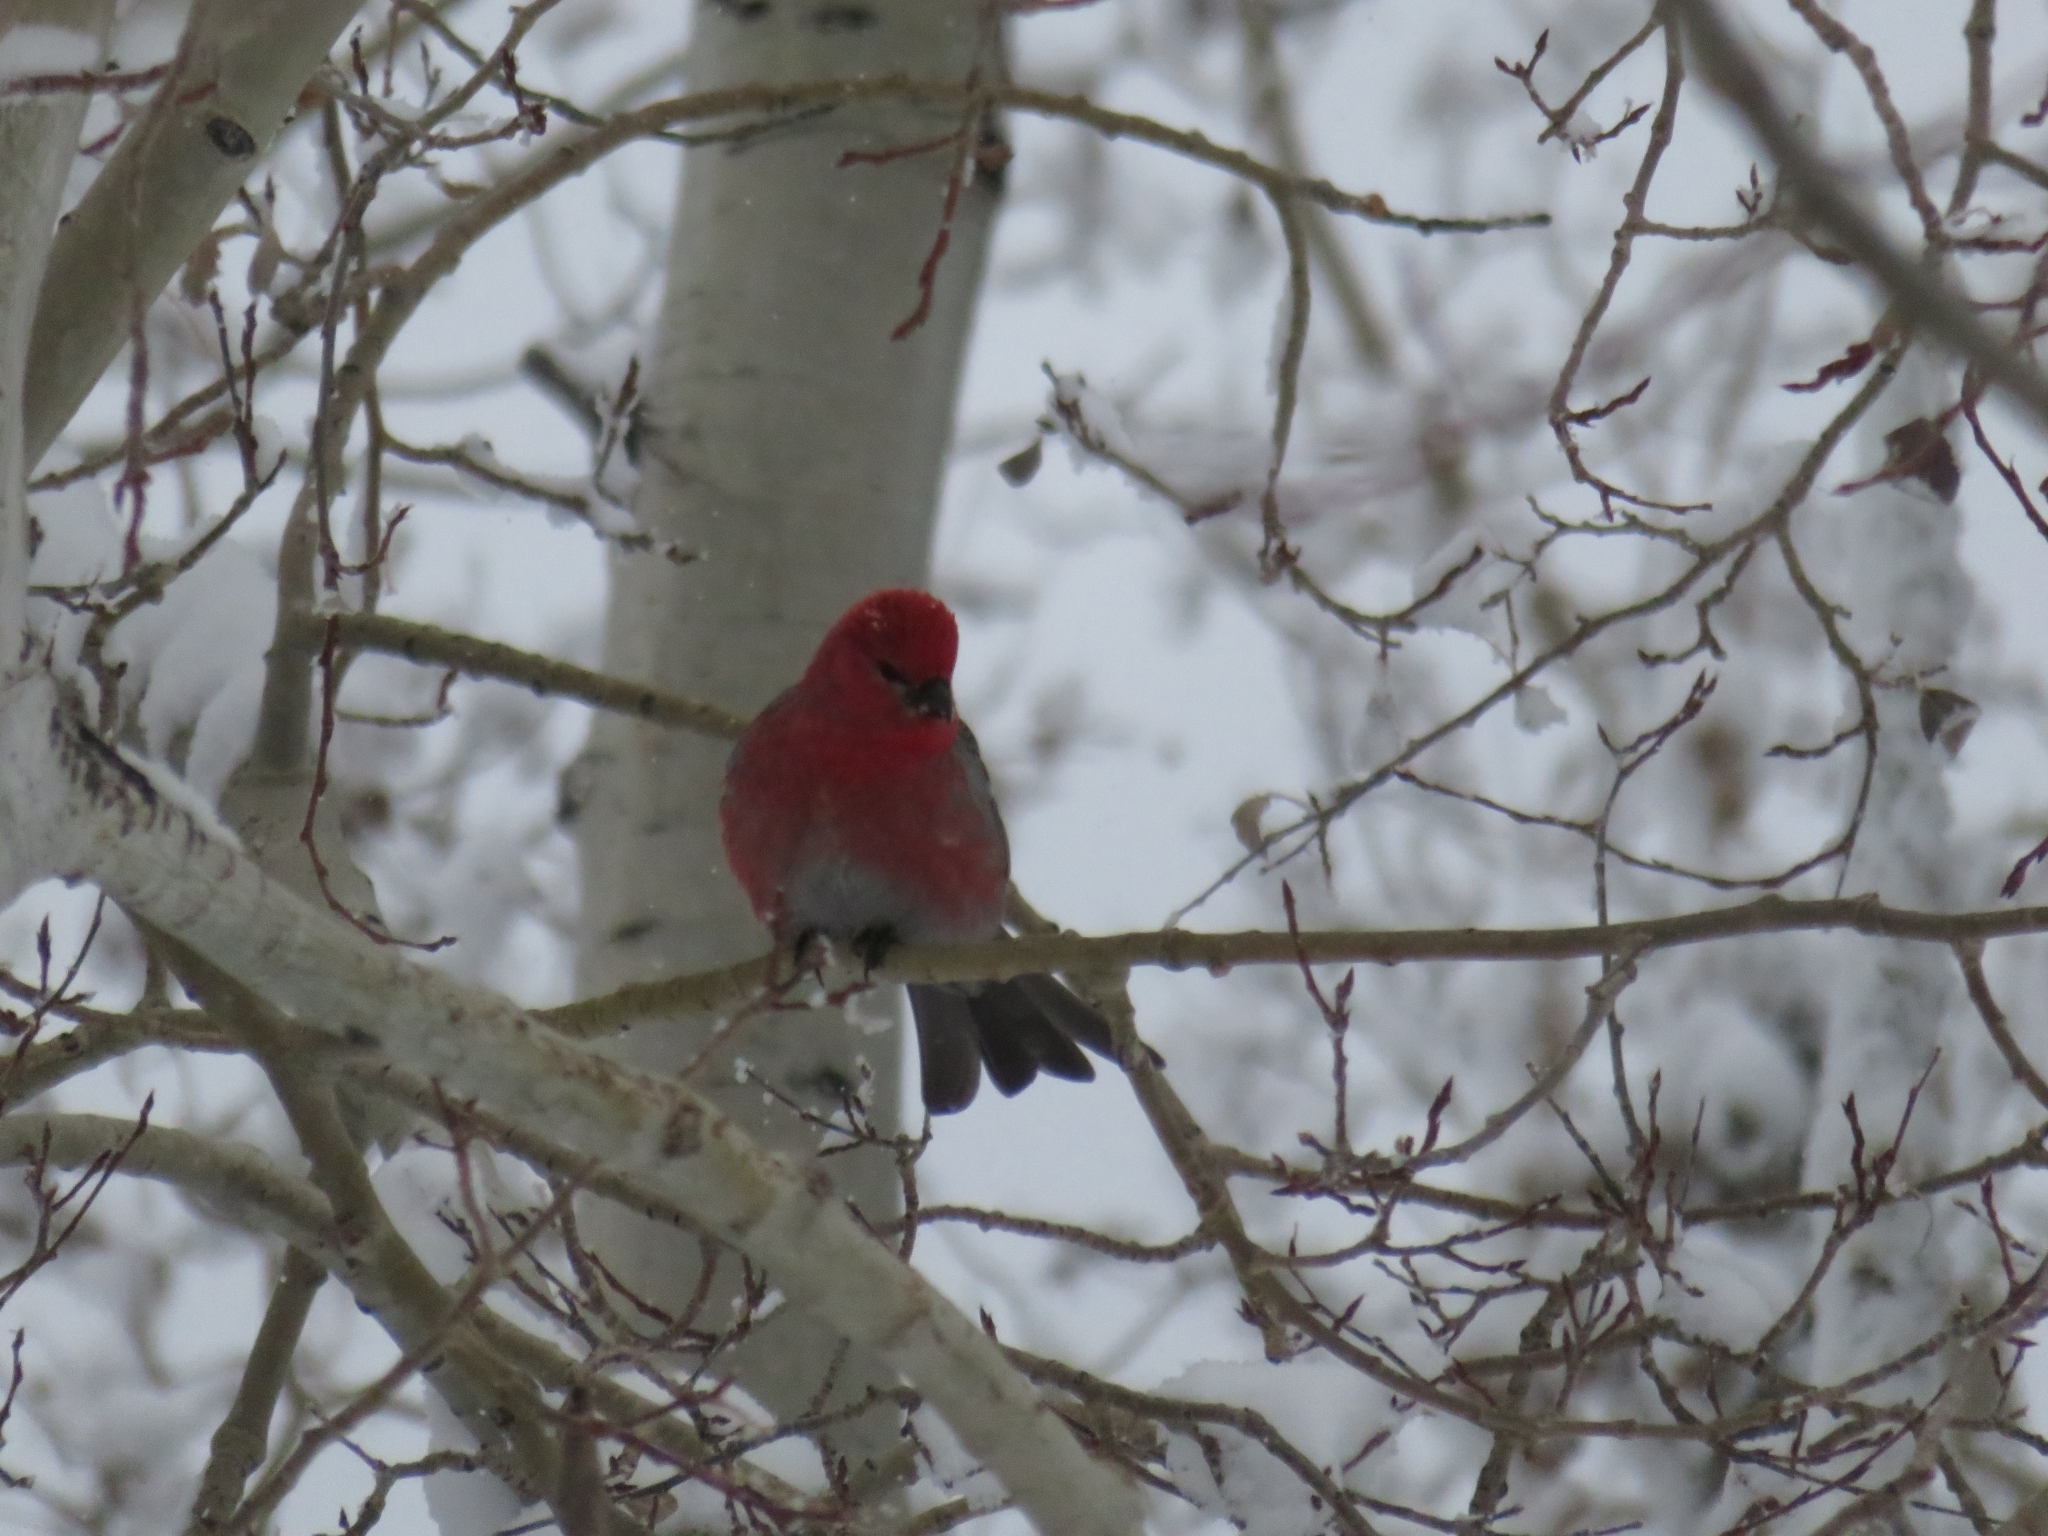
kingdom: Animalia
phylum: Chordata
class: Aves
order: Passeriformes
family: Fringillidae
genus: Pinicola
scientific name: Pinicola enucleator
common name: Pine grosbeak
